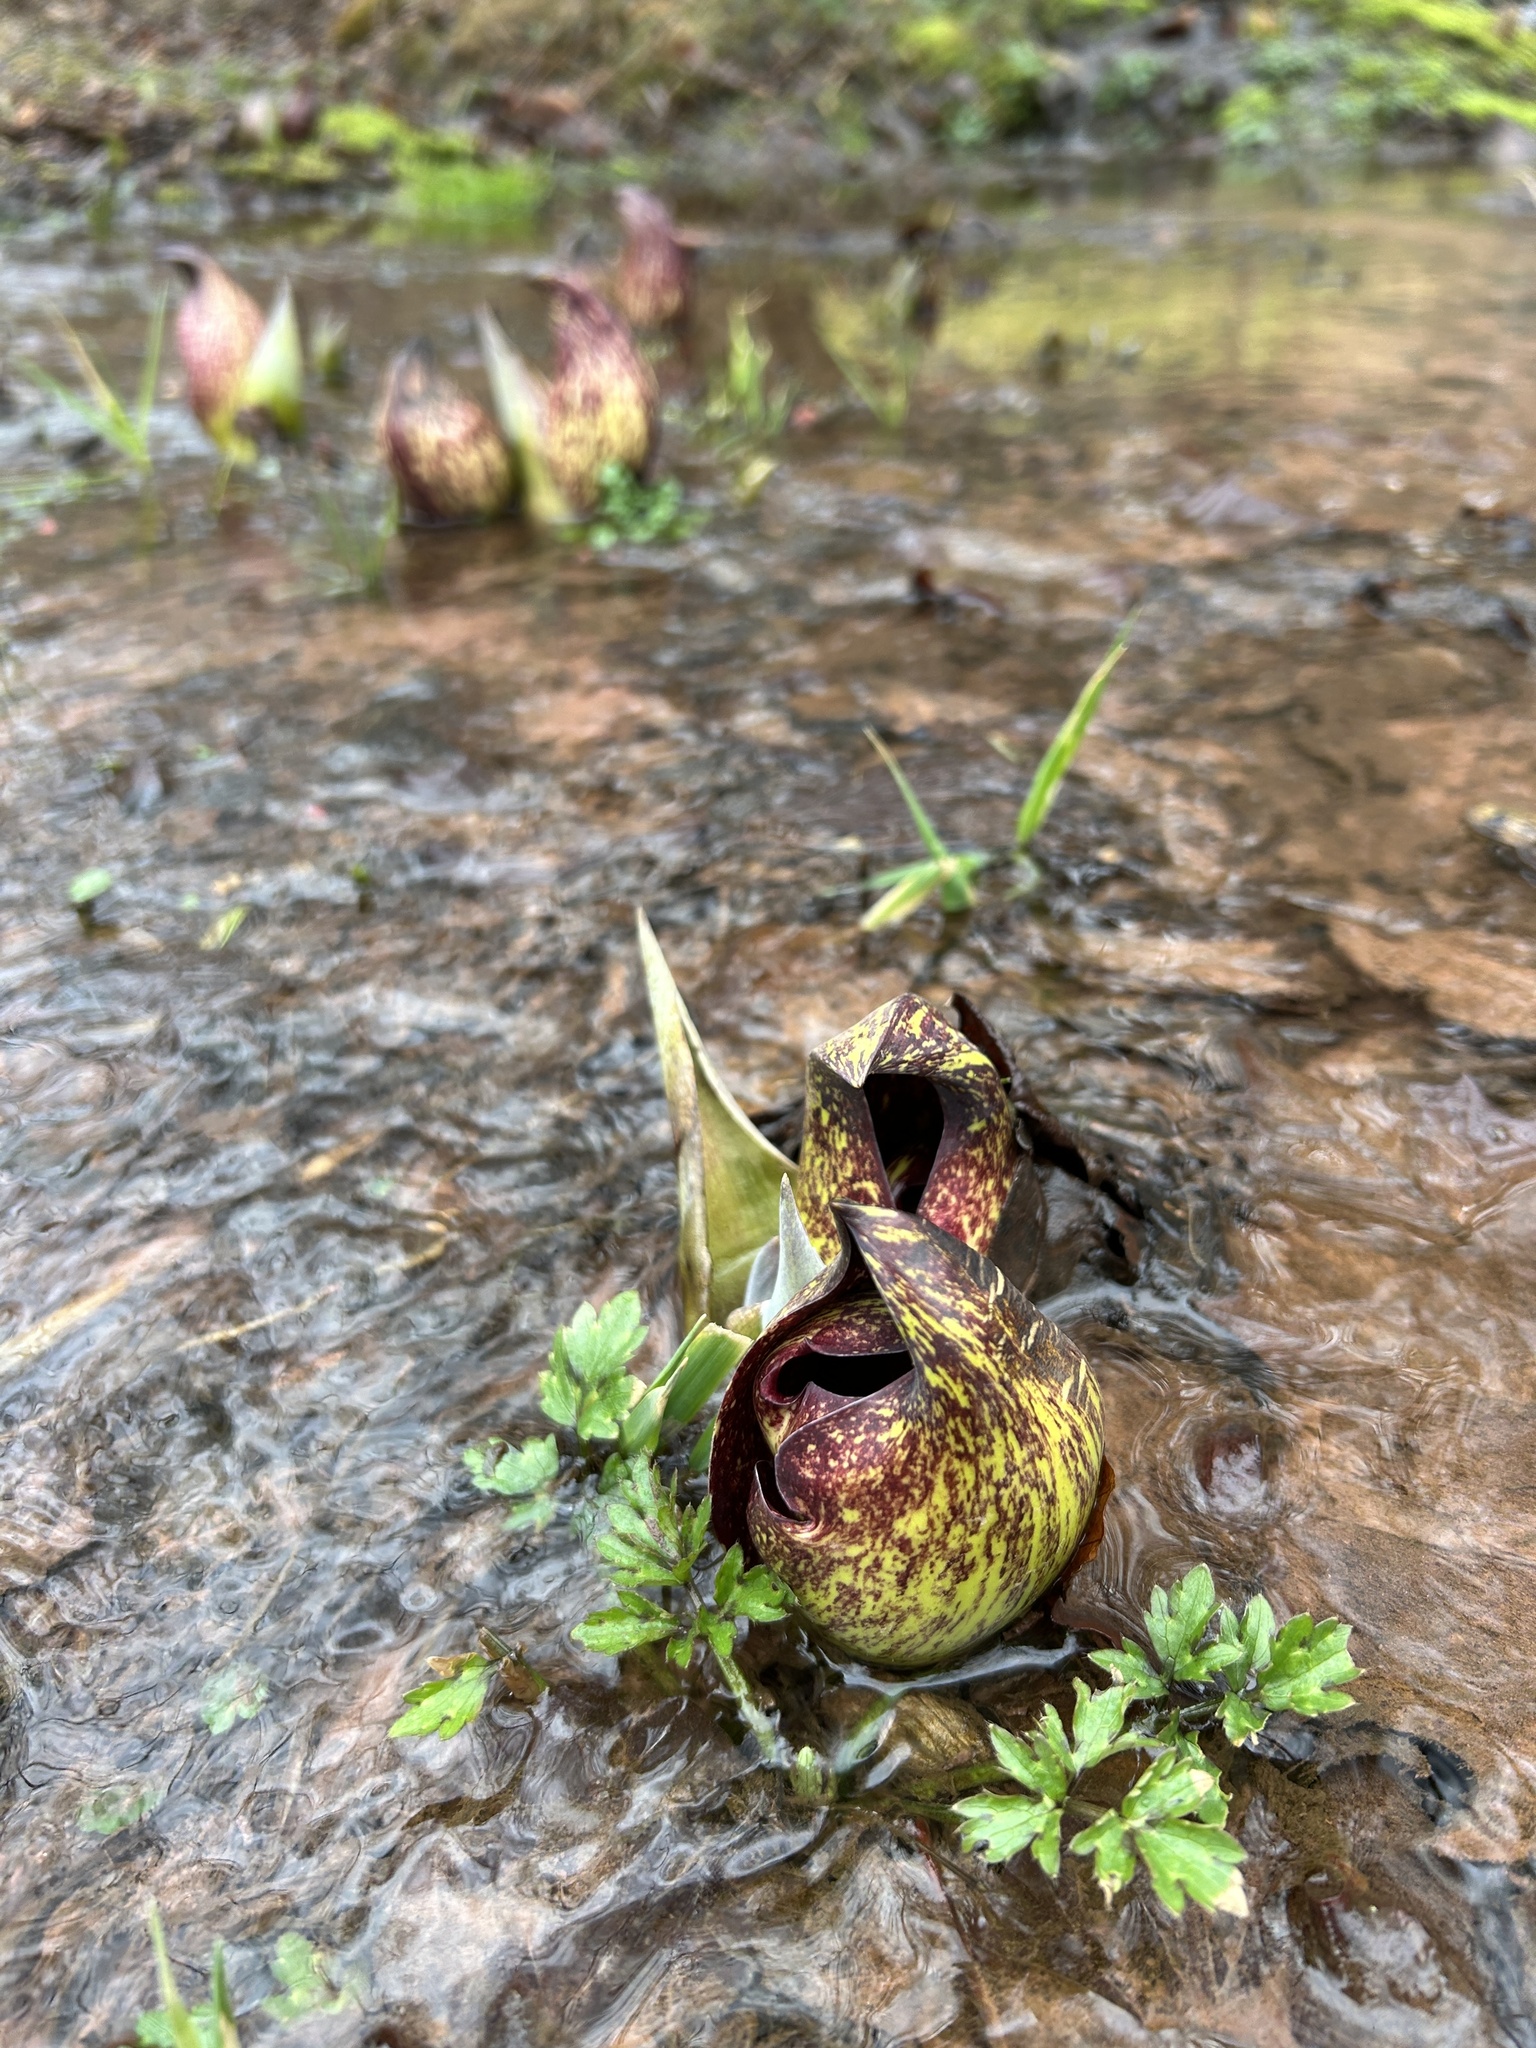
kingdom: Plantae
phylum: Tracheophyta
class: Liliopsida
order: Alismatales
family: Araceae
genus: Symplocarpus
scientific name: Symplocarpus foetidus
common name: Eastern skunk cabbage
